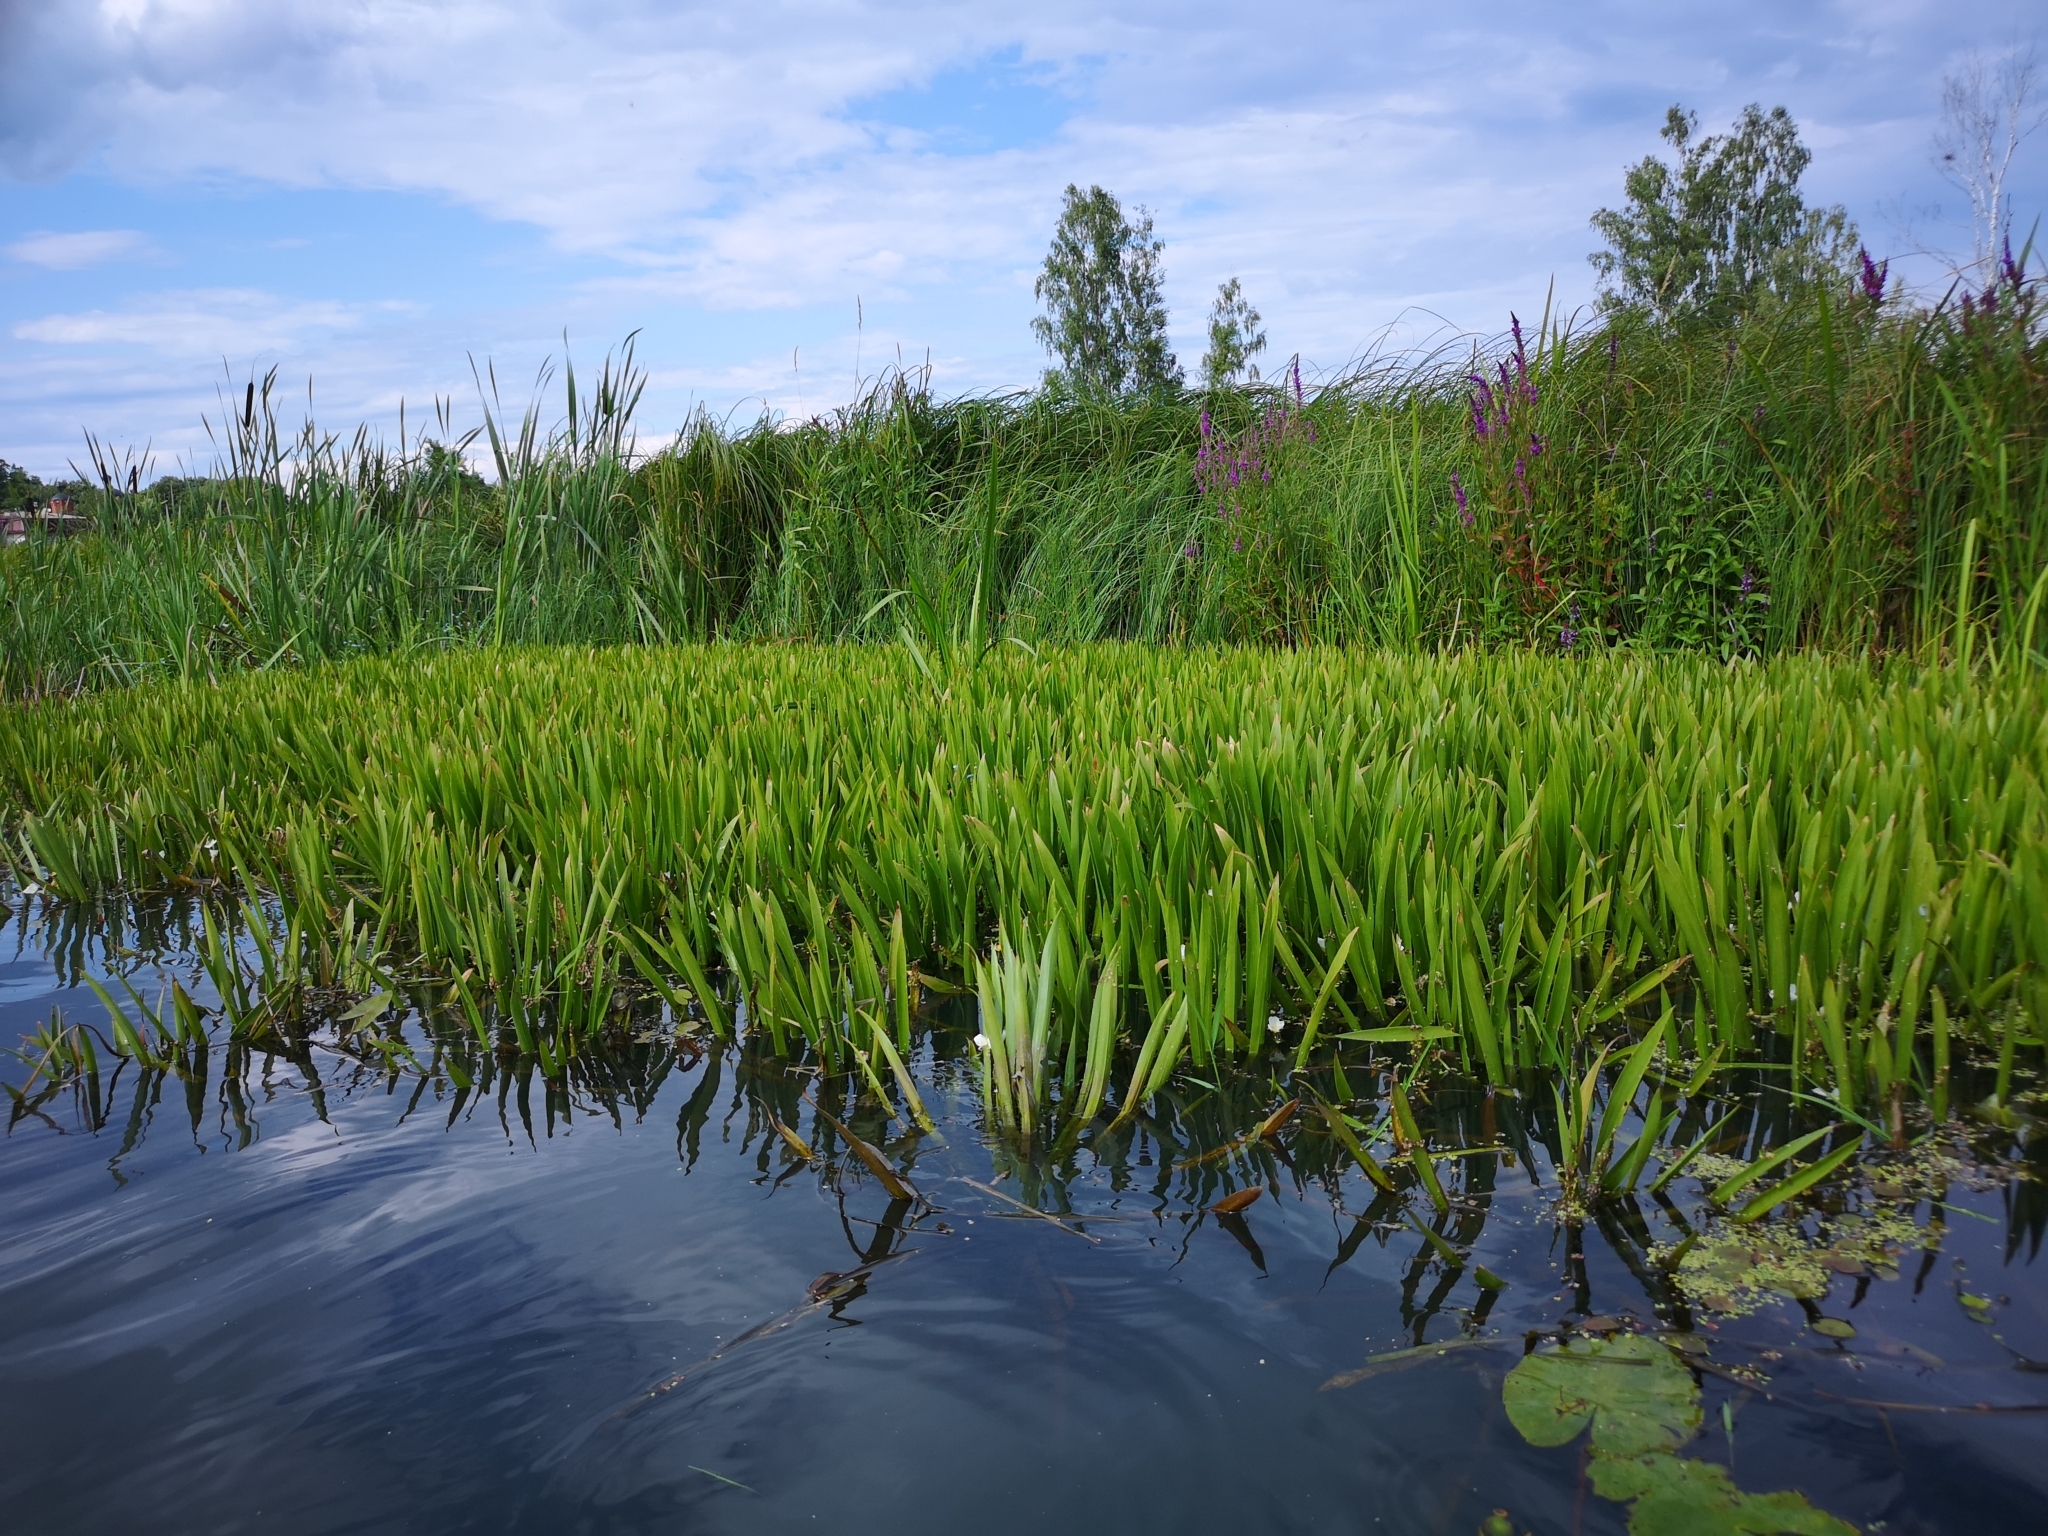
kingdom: Plantae
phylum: Tracheophyta
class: Liliopsida
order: Alismatales
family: Hydrocharitaceae
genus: Stratiotes
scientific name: Stratiotes aloides
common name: Water-soldier
